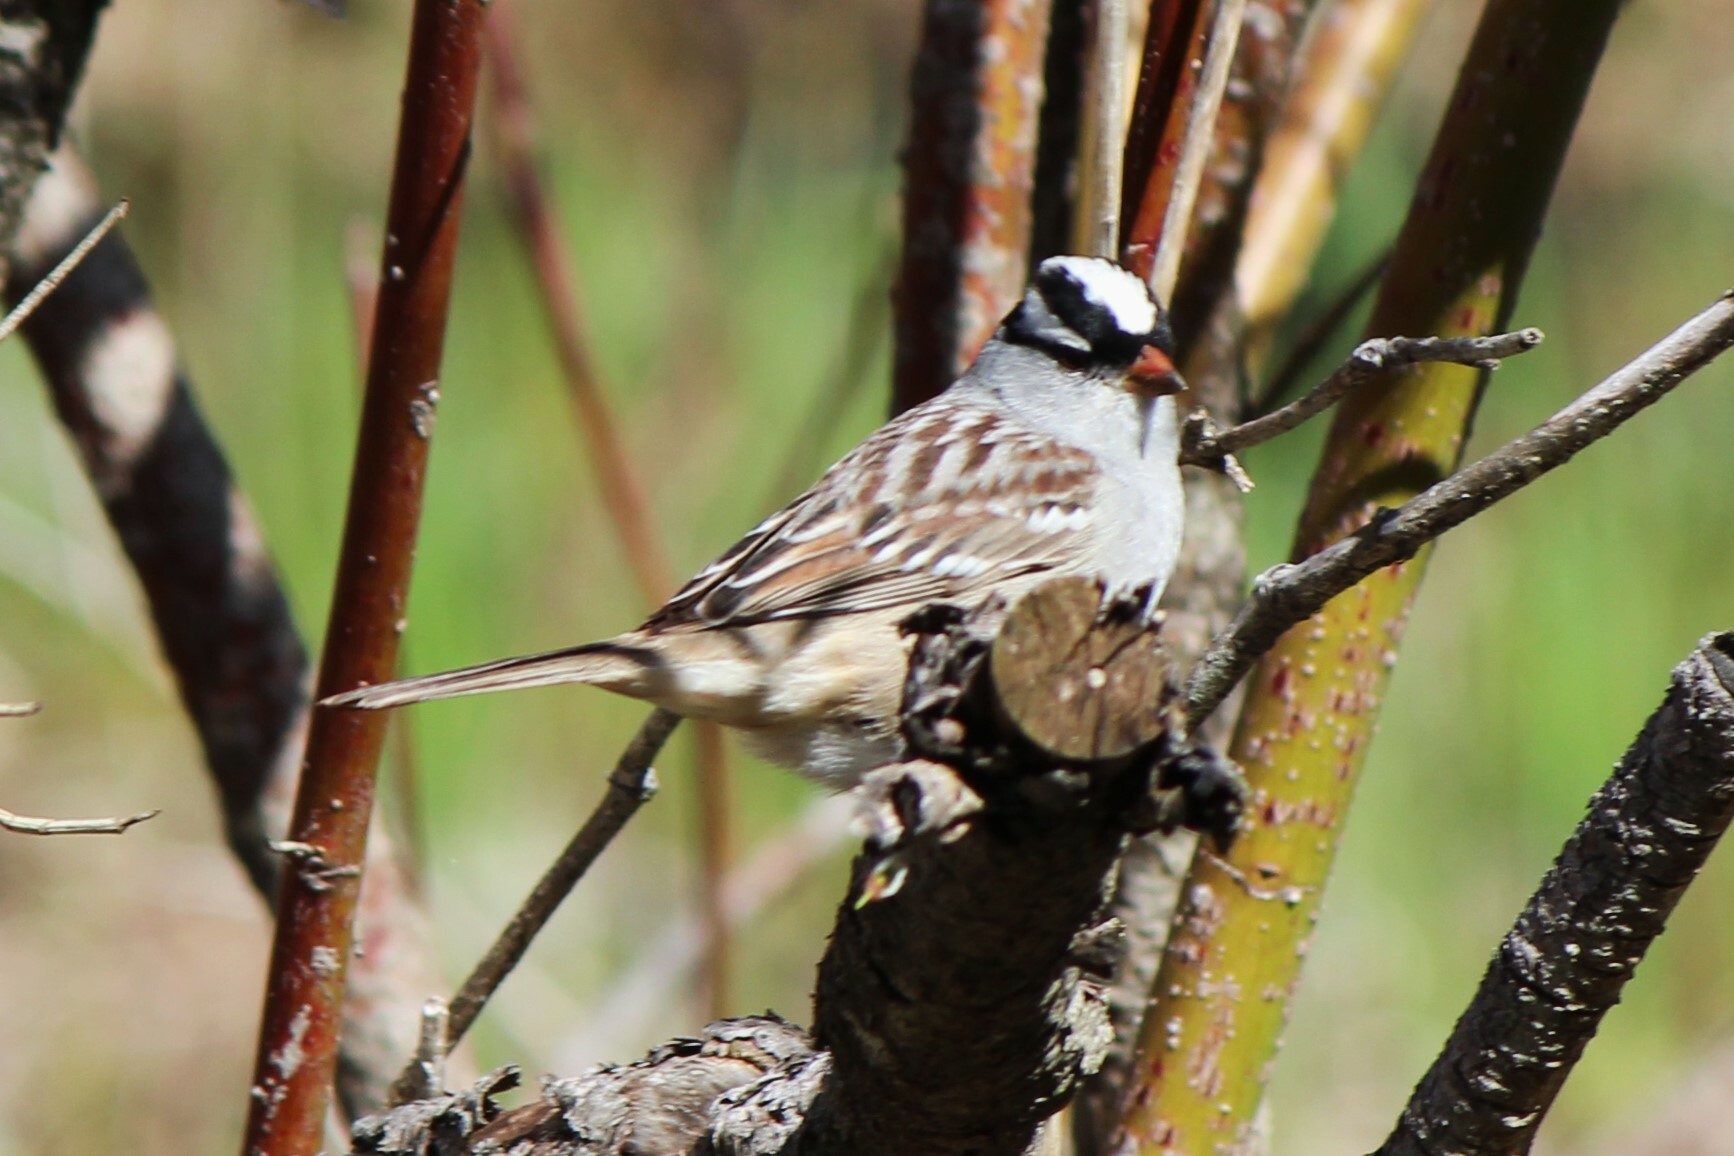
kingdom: Animalia
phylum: Chordata
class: Aves
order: Passeriformes
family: Passerellidae
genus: Zonotrichia
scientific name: Zonotrichia leucophrys
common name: White-crowned sparrow
